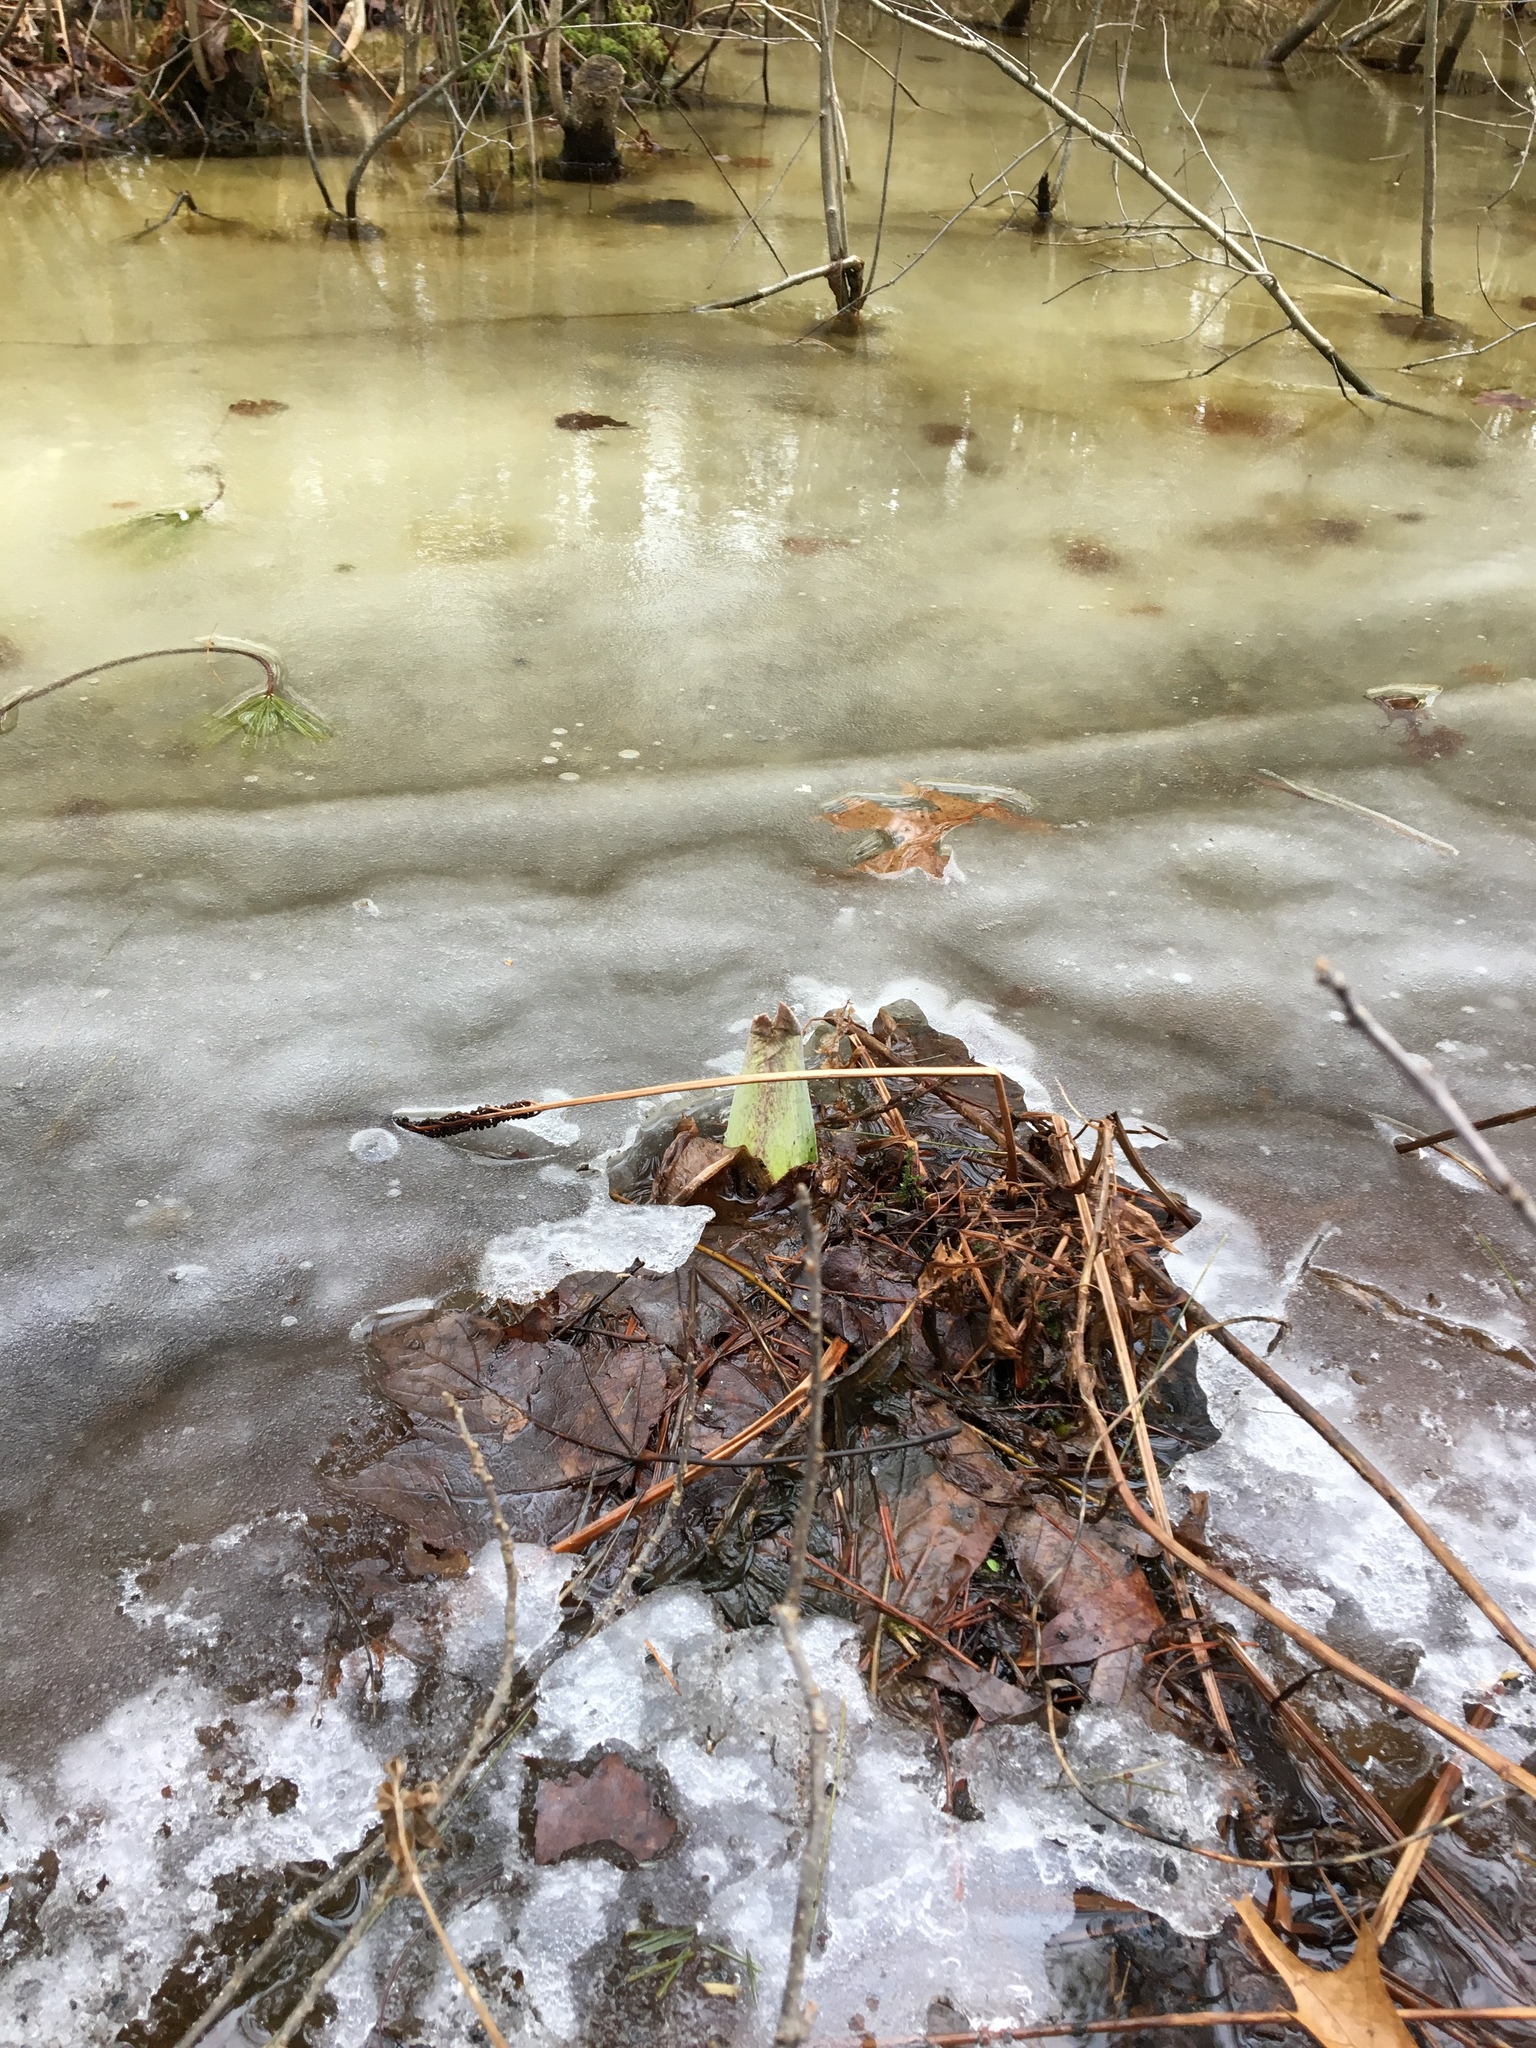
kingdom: Plantae
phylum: Tracheophyta
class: Liliopsida
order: Alismatales
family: Araceae
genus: Symplocarpus
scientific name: Symplocarpus foetidus
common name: Eastern skunk cabbage
